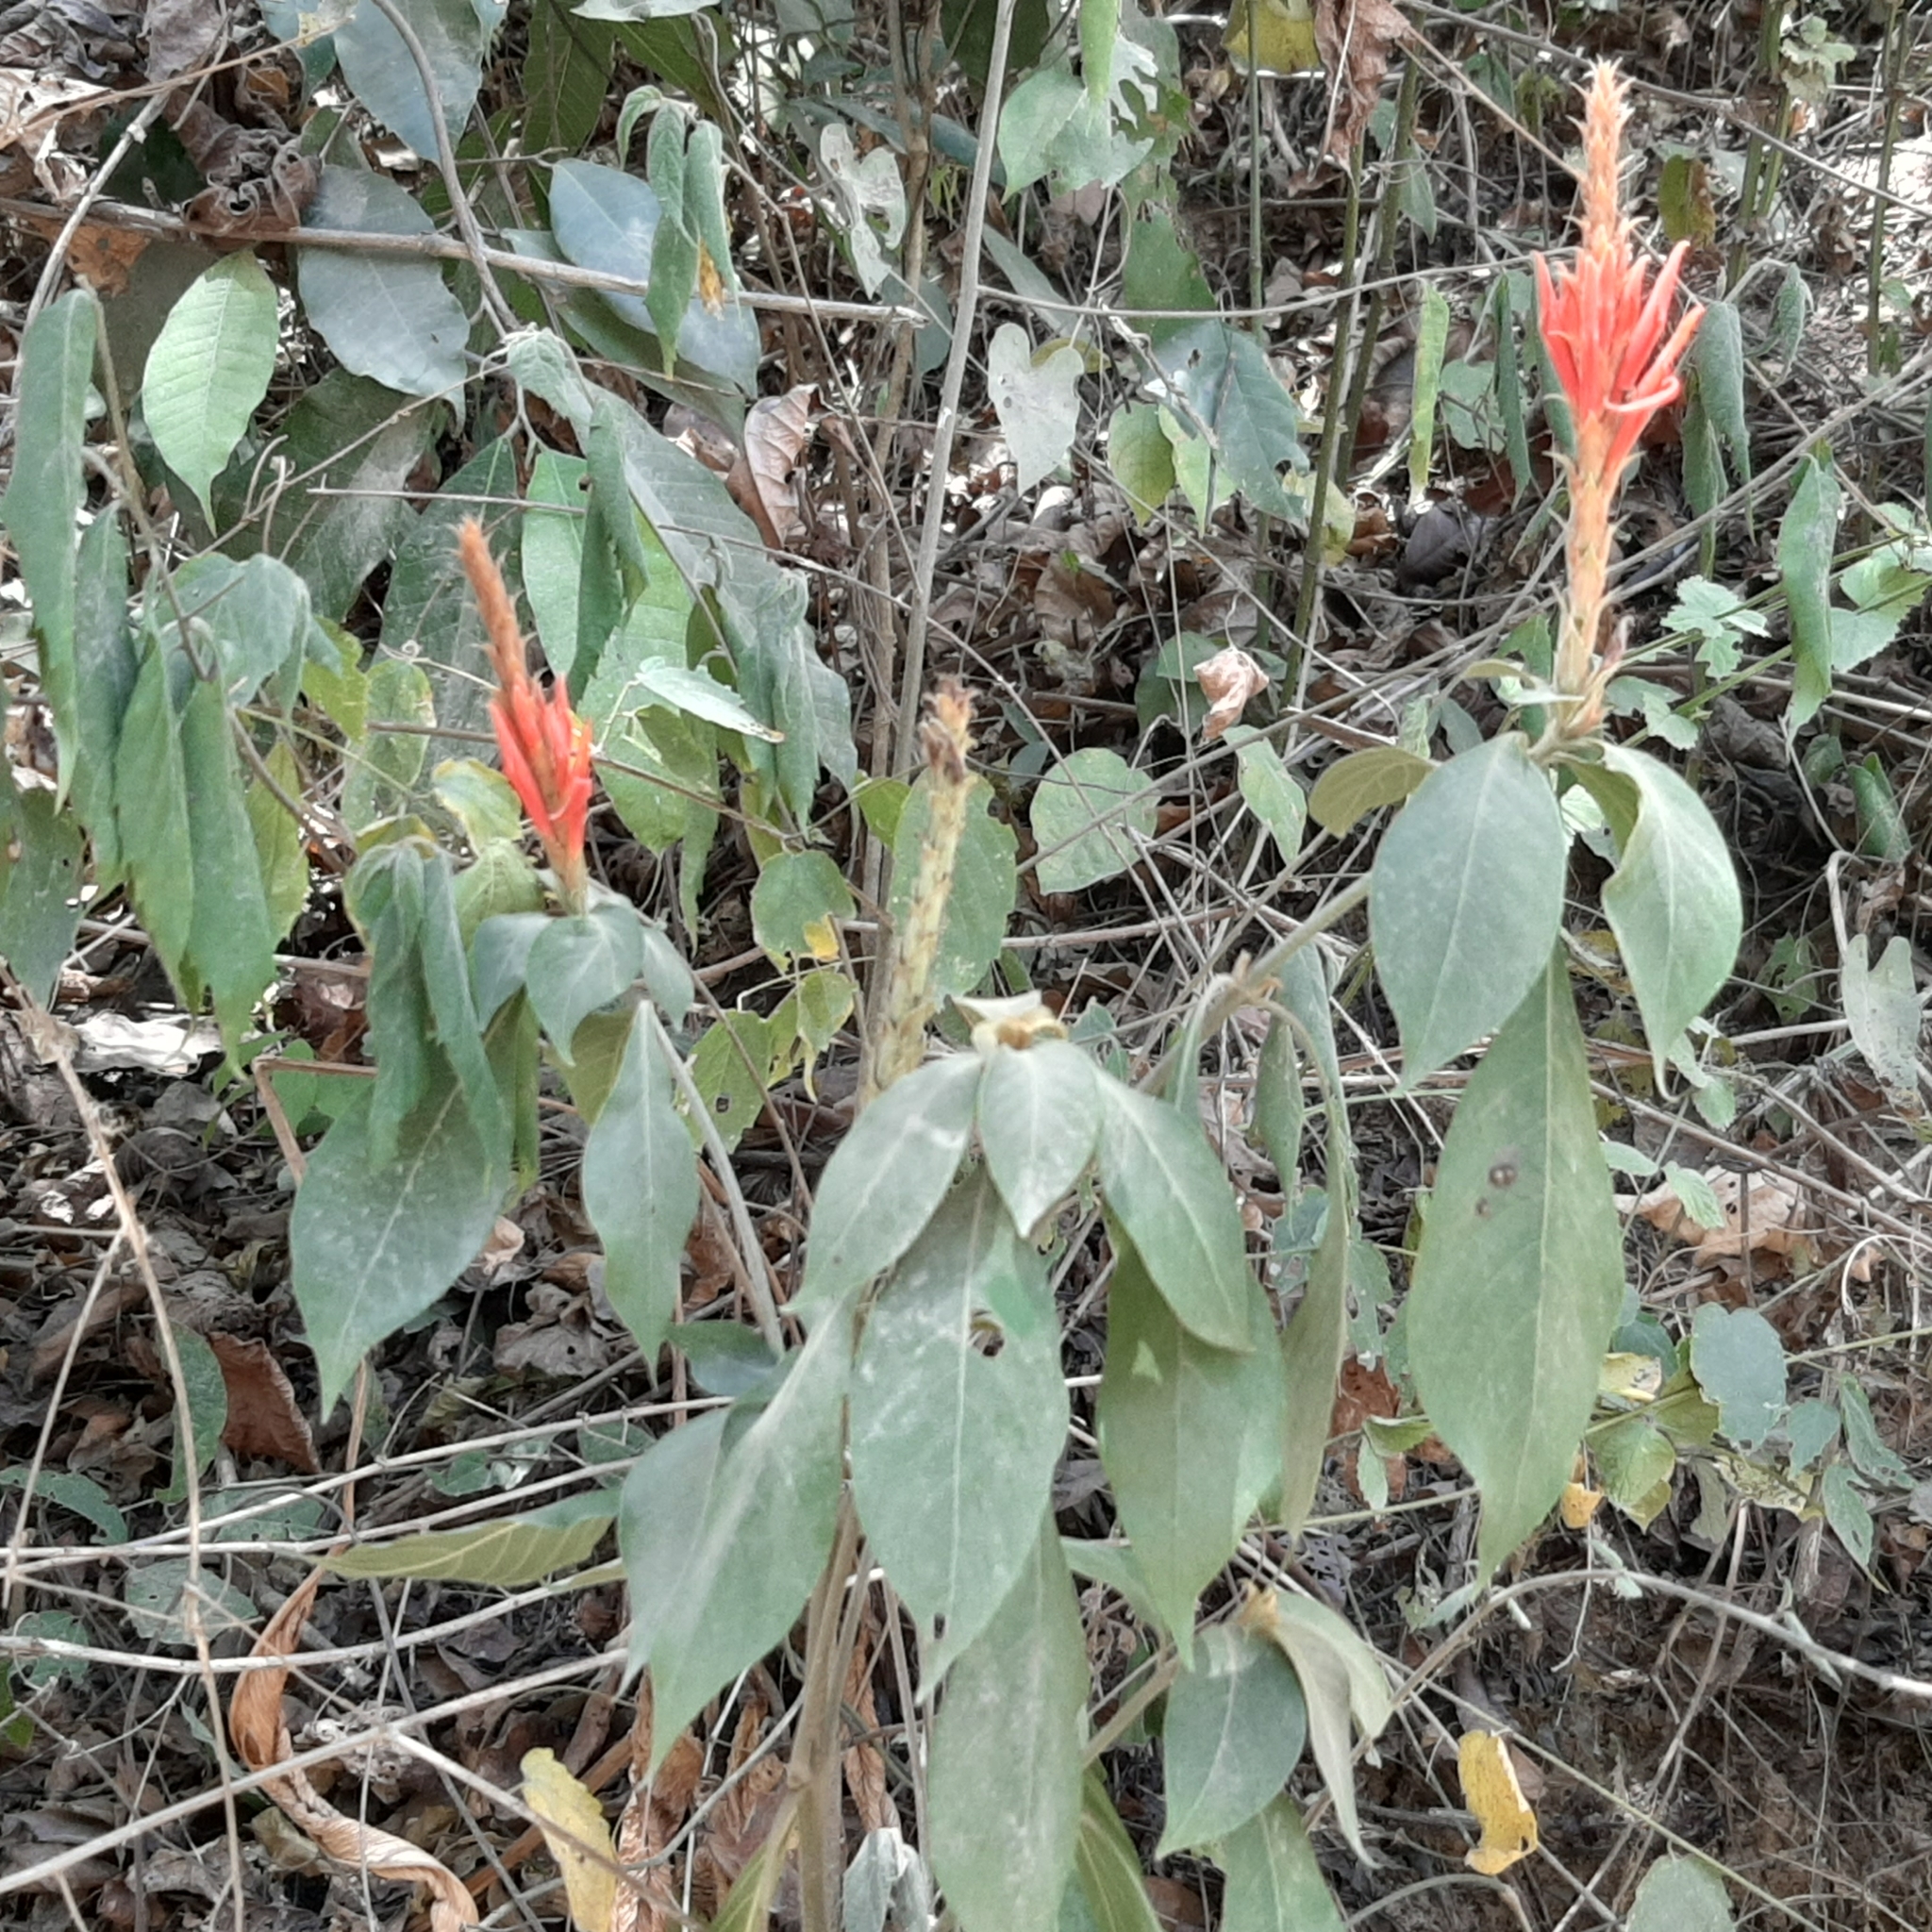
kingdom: Plantae
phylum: Tracheophyta
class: Magnoliopsida
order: Lamiales
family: Acanthaceae
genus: Aphelandra
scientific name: Aphelandra scabra
